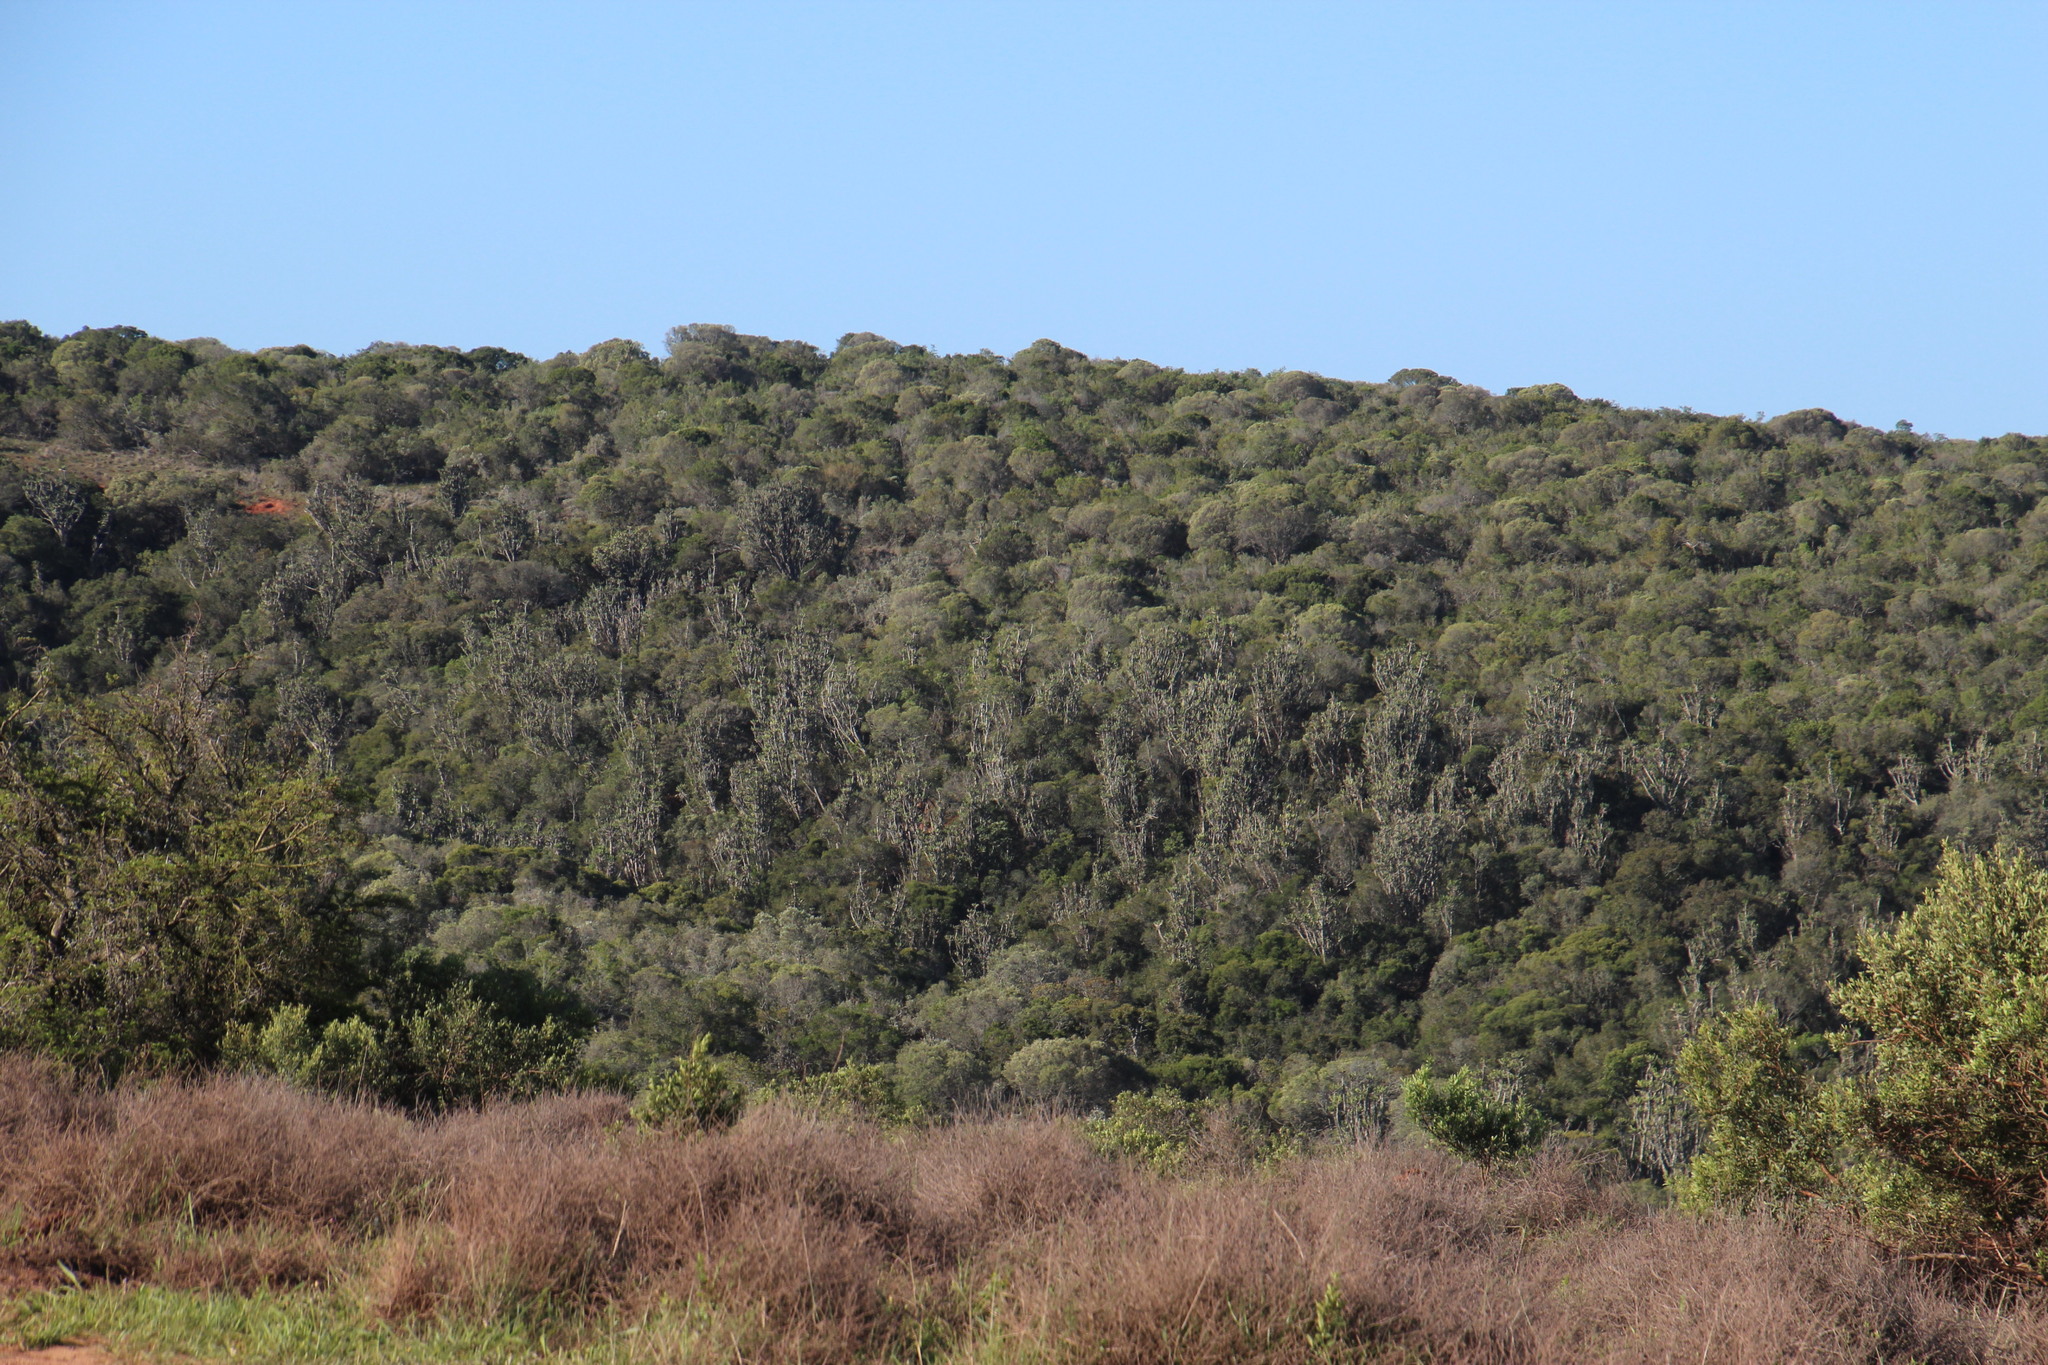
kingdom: Plantae
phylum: Tracheophyta
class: Magnoliopsida
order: Malpighiales
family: Euphorbiaceae
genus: Euphorbia
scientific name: Euphorbia triangularis
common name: Chandelier tree
